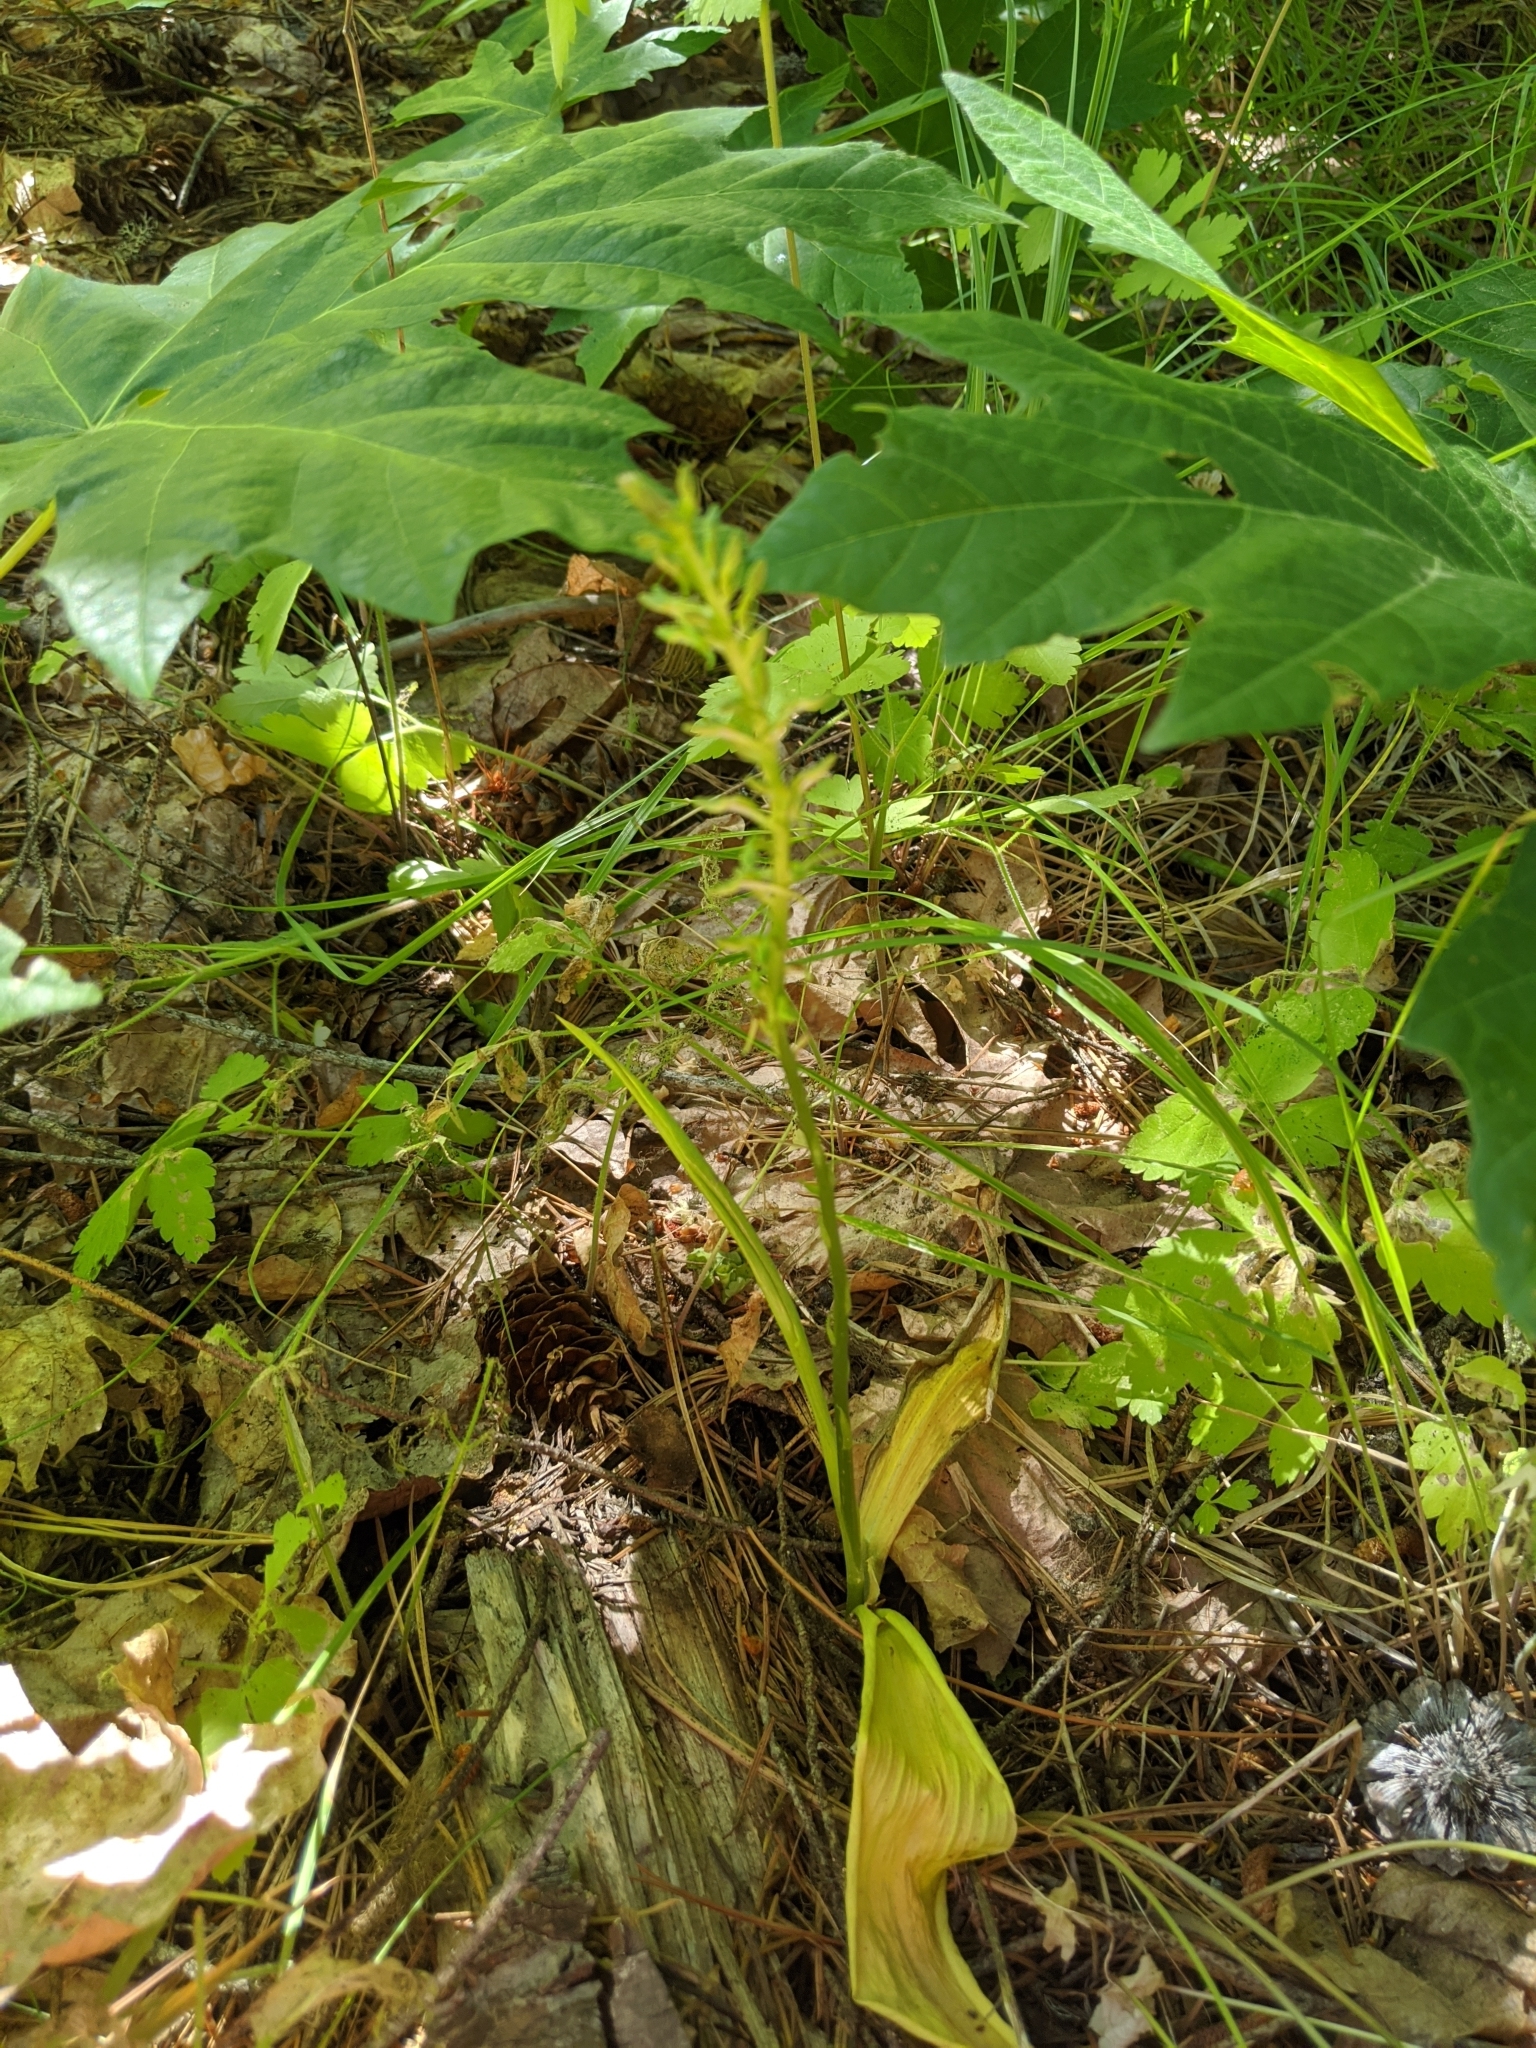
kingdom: Plantae
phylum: Tracheophyta
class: Liliopsida
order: Asparagales
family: Orchidaceae
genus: Platanthera
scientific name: Platanthera elongata
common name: Dense-flowered rein orchid
